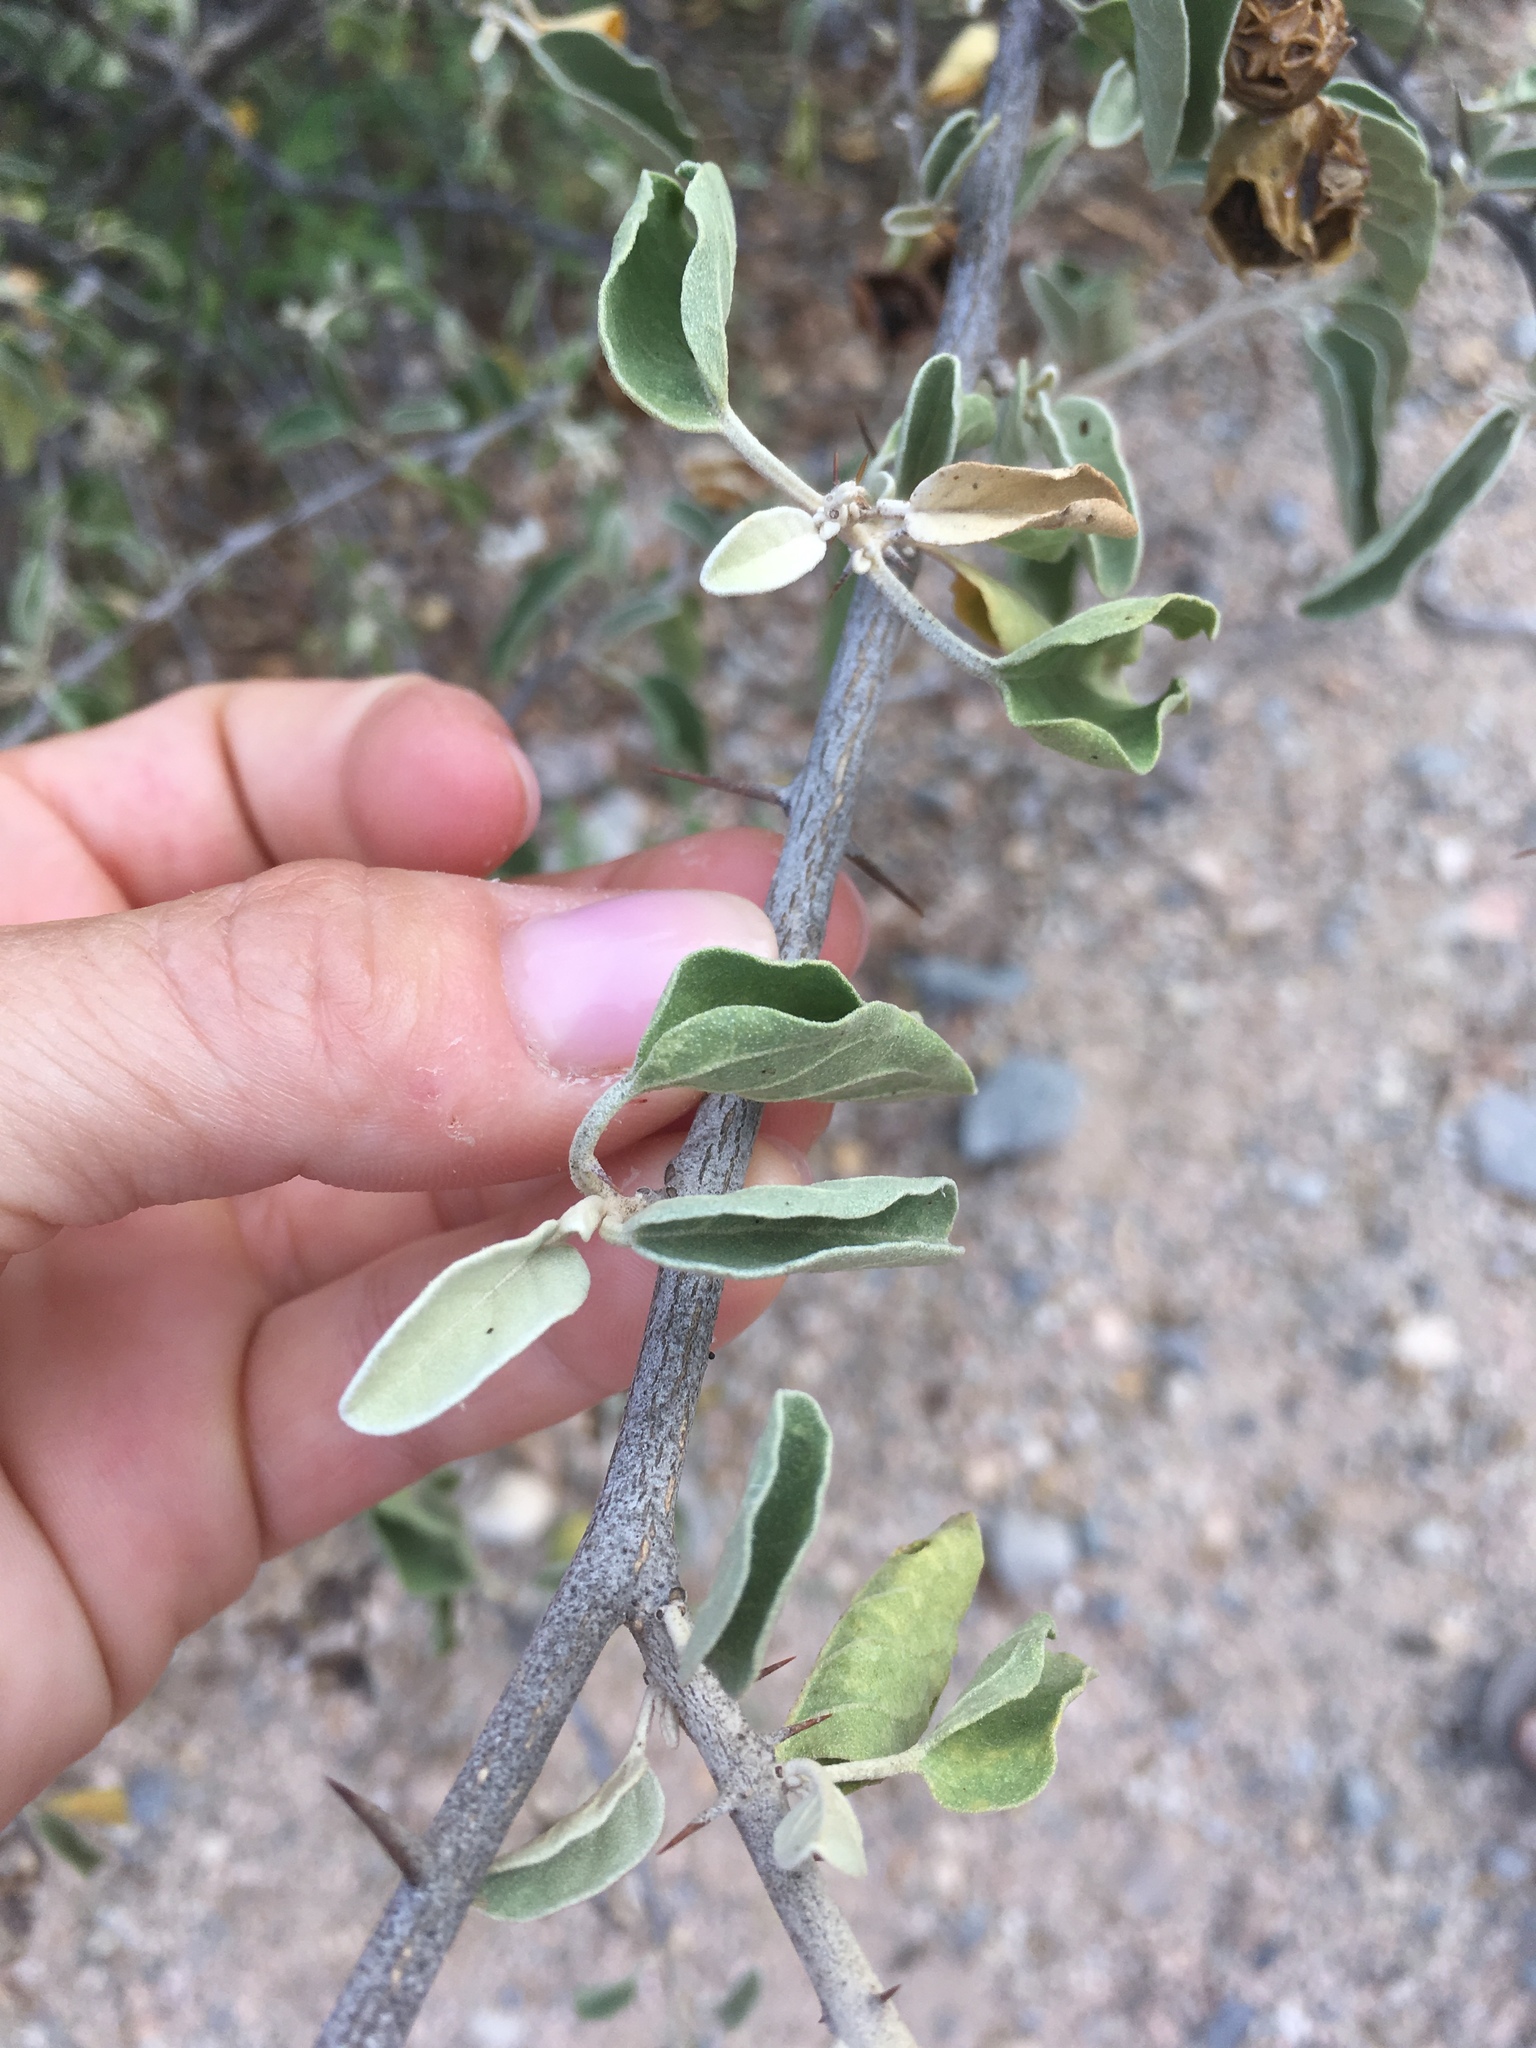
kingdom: Plantae
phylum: Tracheophyta
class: Magnoliopsida
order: Solanales
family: Solanaceae
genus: Solanum
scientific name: Solanum hindsianum
